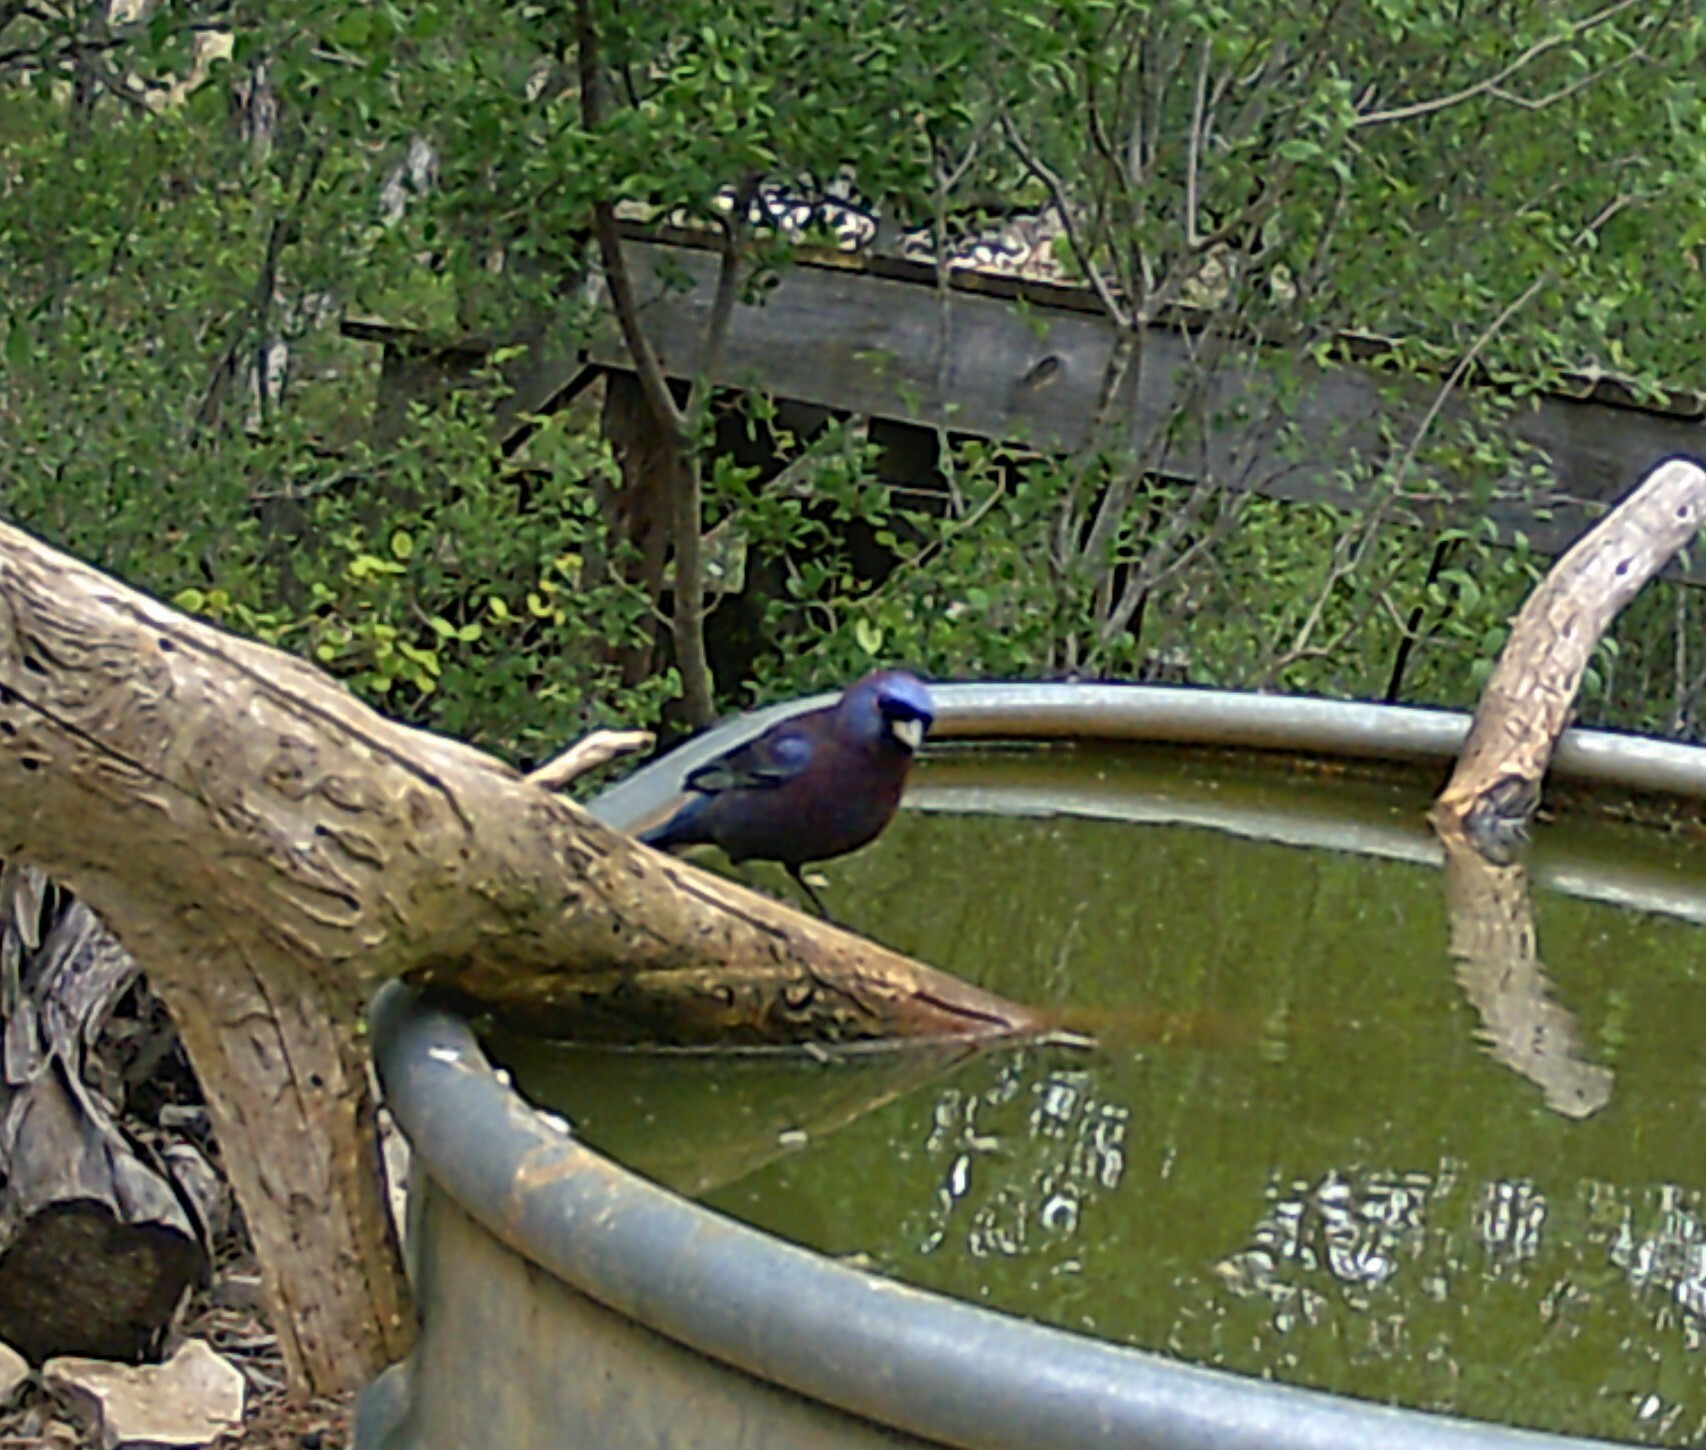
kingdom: Animalia
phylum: Chordata
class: Aves
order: Passeriformes
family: Cardinalidae
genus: Passerina
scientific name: Passerina versicolor
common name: Varied bunting
